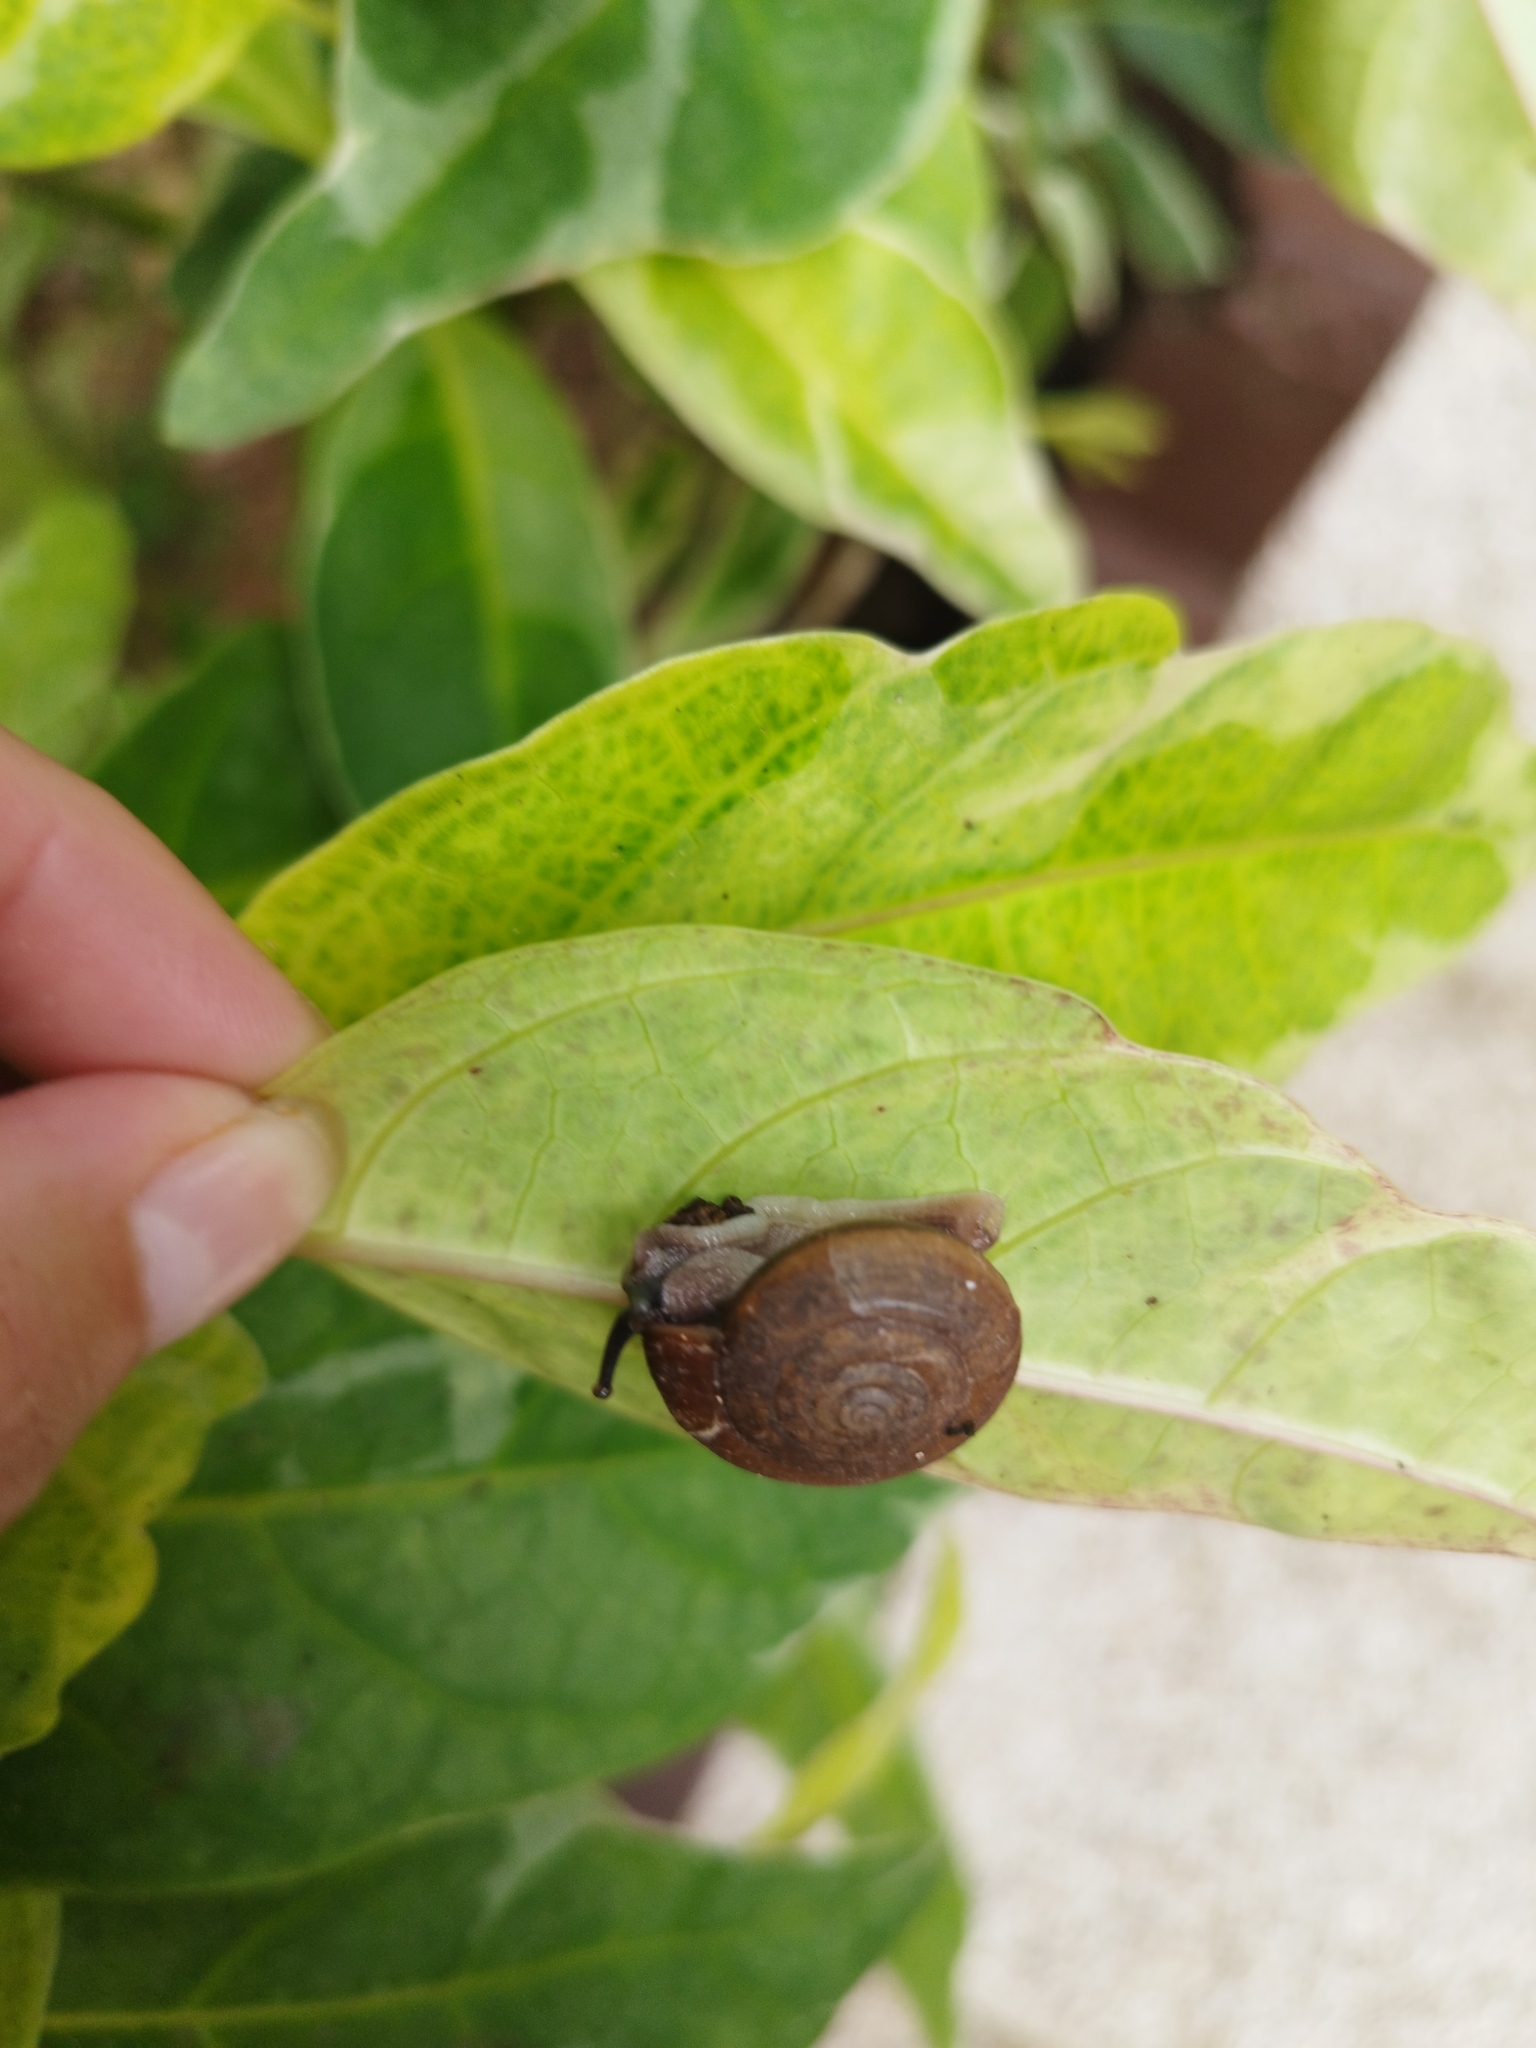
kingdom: Animalia
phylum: Mollusca
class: Gastropoda
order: Stylommatophora
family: Ariophantidae
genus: Sarika
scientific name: Sarika siamensis
